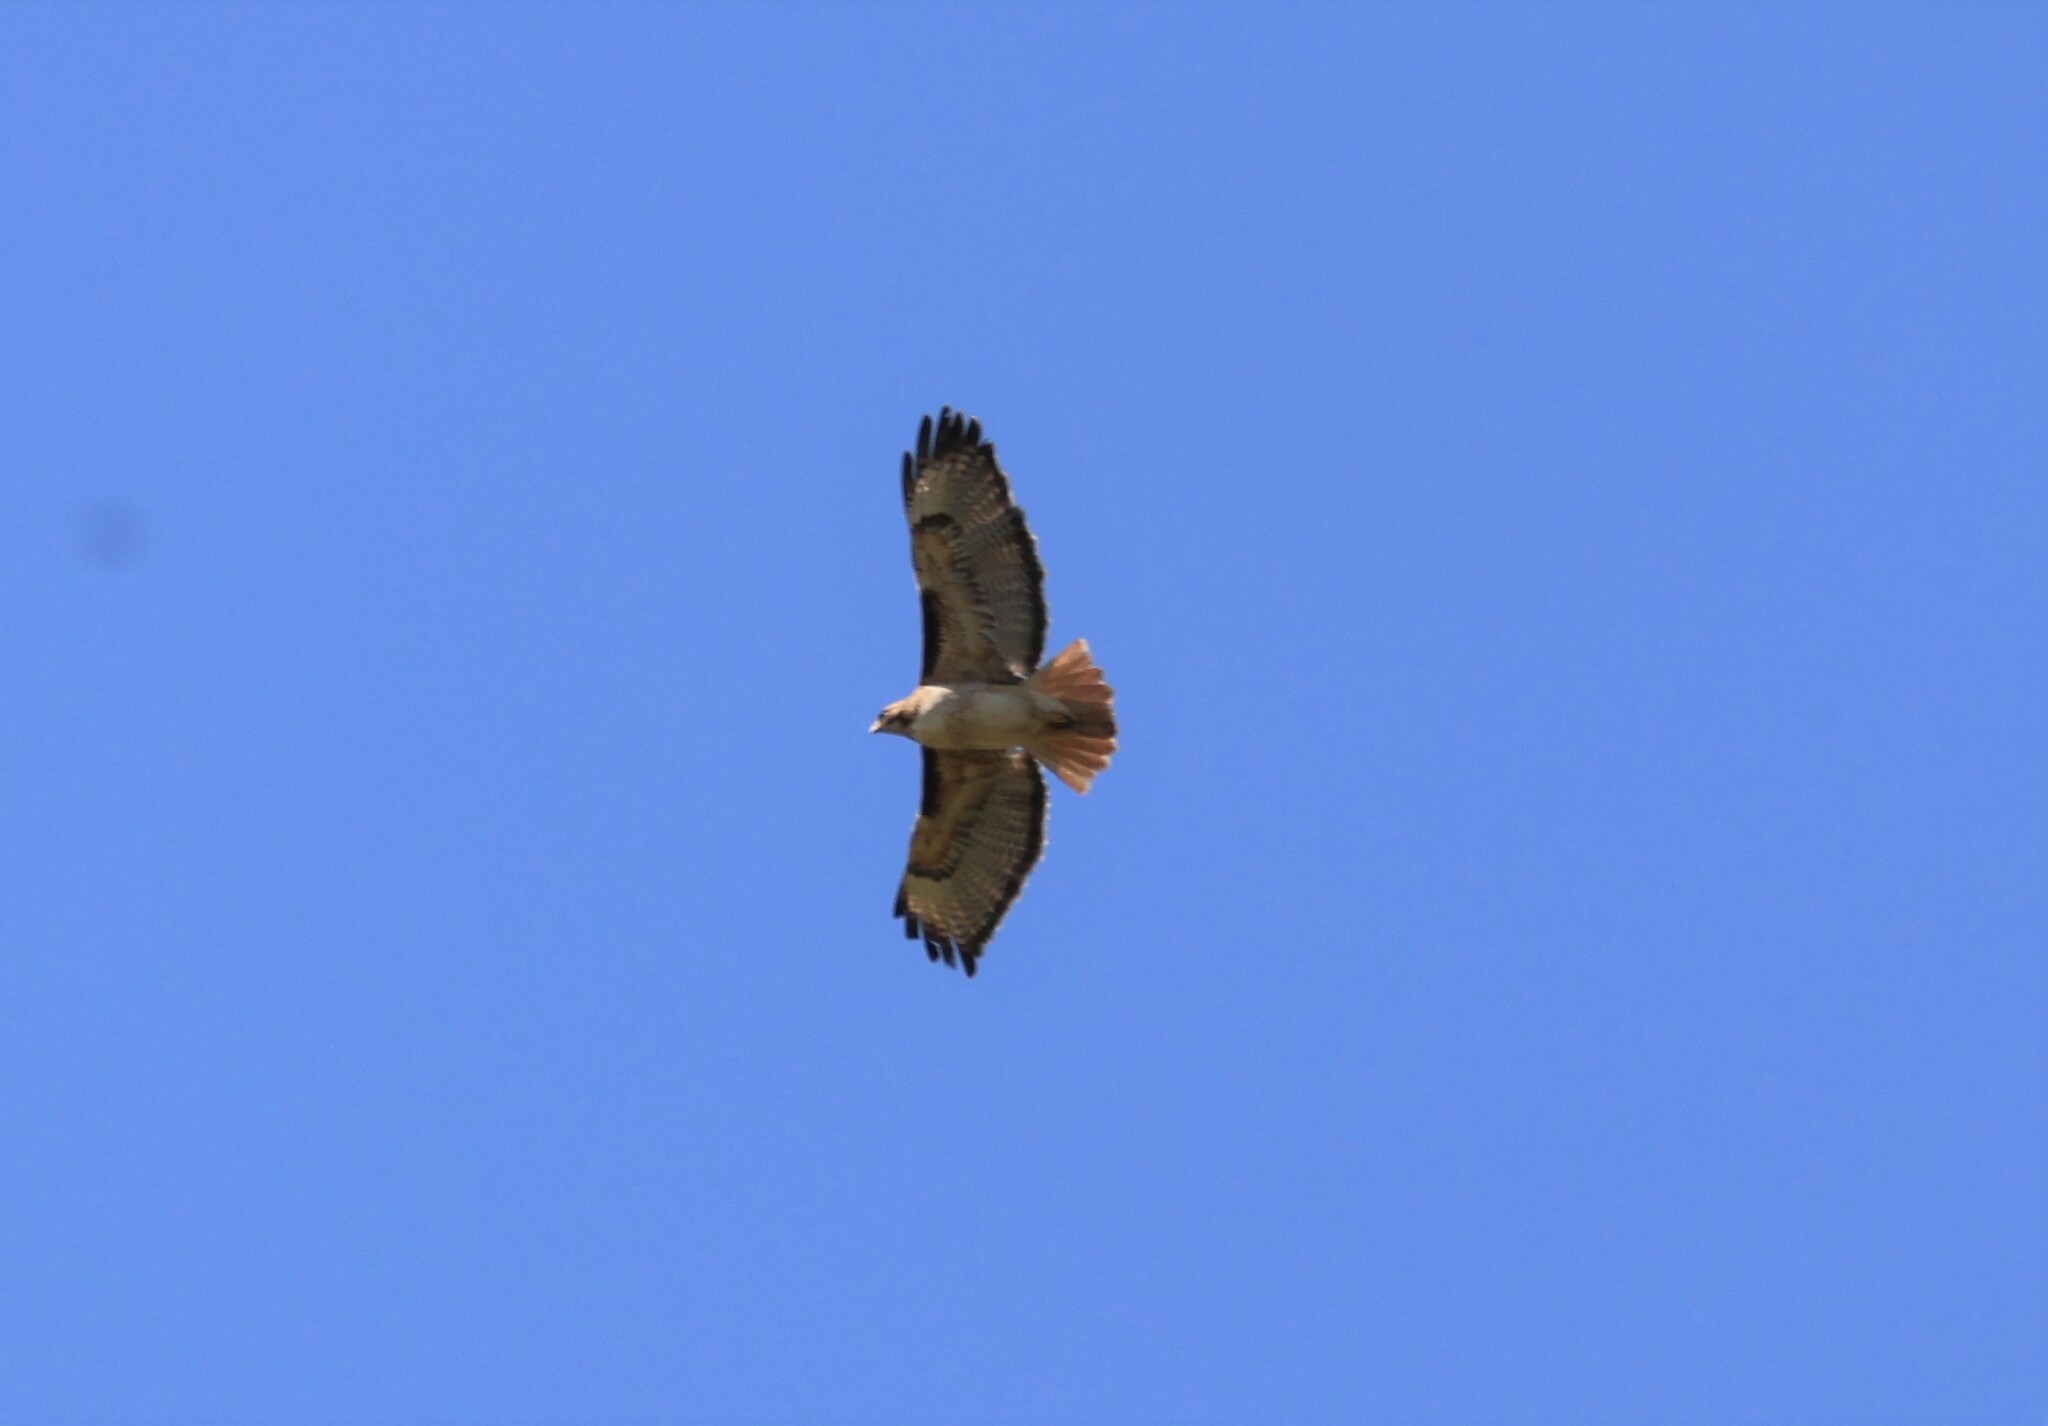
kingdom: Animalia
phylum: Chordata
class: Aves
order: Accipitriformes
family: Accipitridae
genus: Buteo
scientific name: Buteo jamaicensis
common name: Red-tailed hawk
